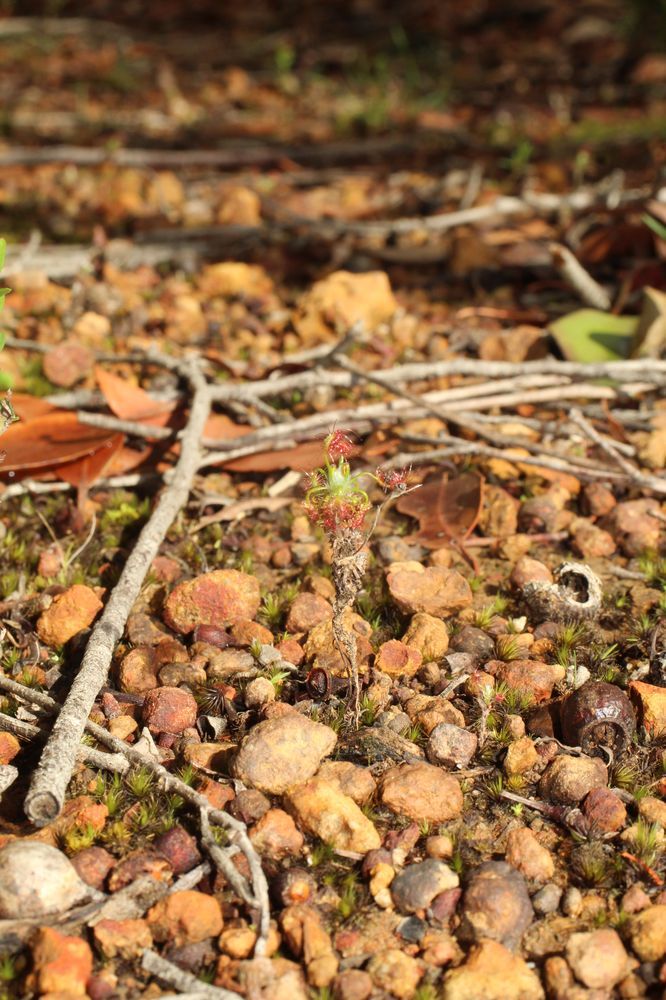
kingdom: Plantae
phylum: Tracheophyta
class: Magnoliopsida
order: Caryophyllales
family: Droseraceae
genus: Drosera
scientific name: Drosera lasiantha
